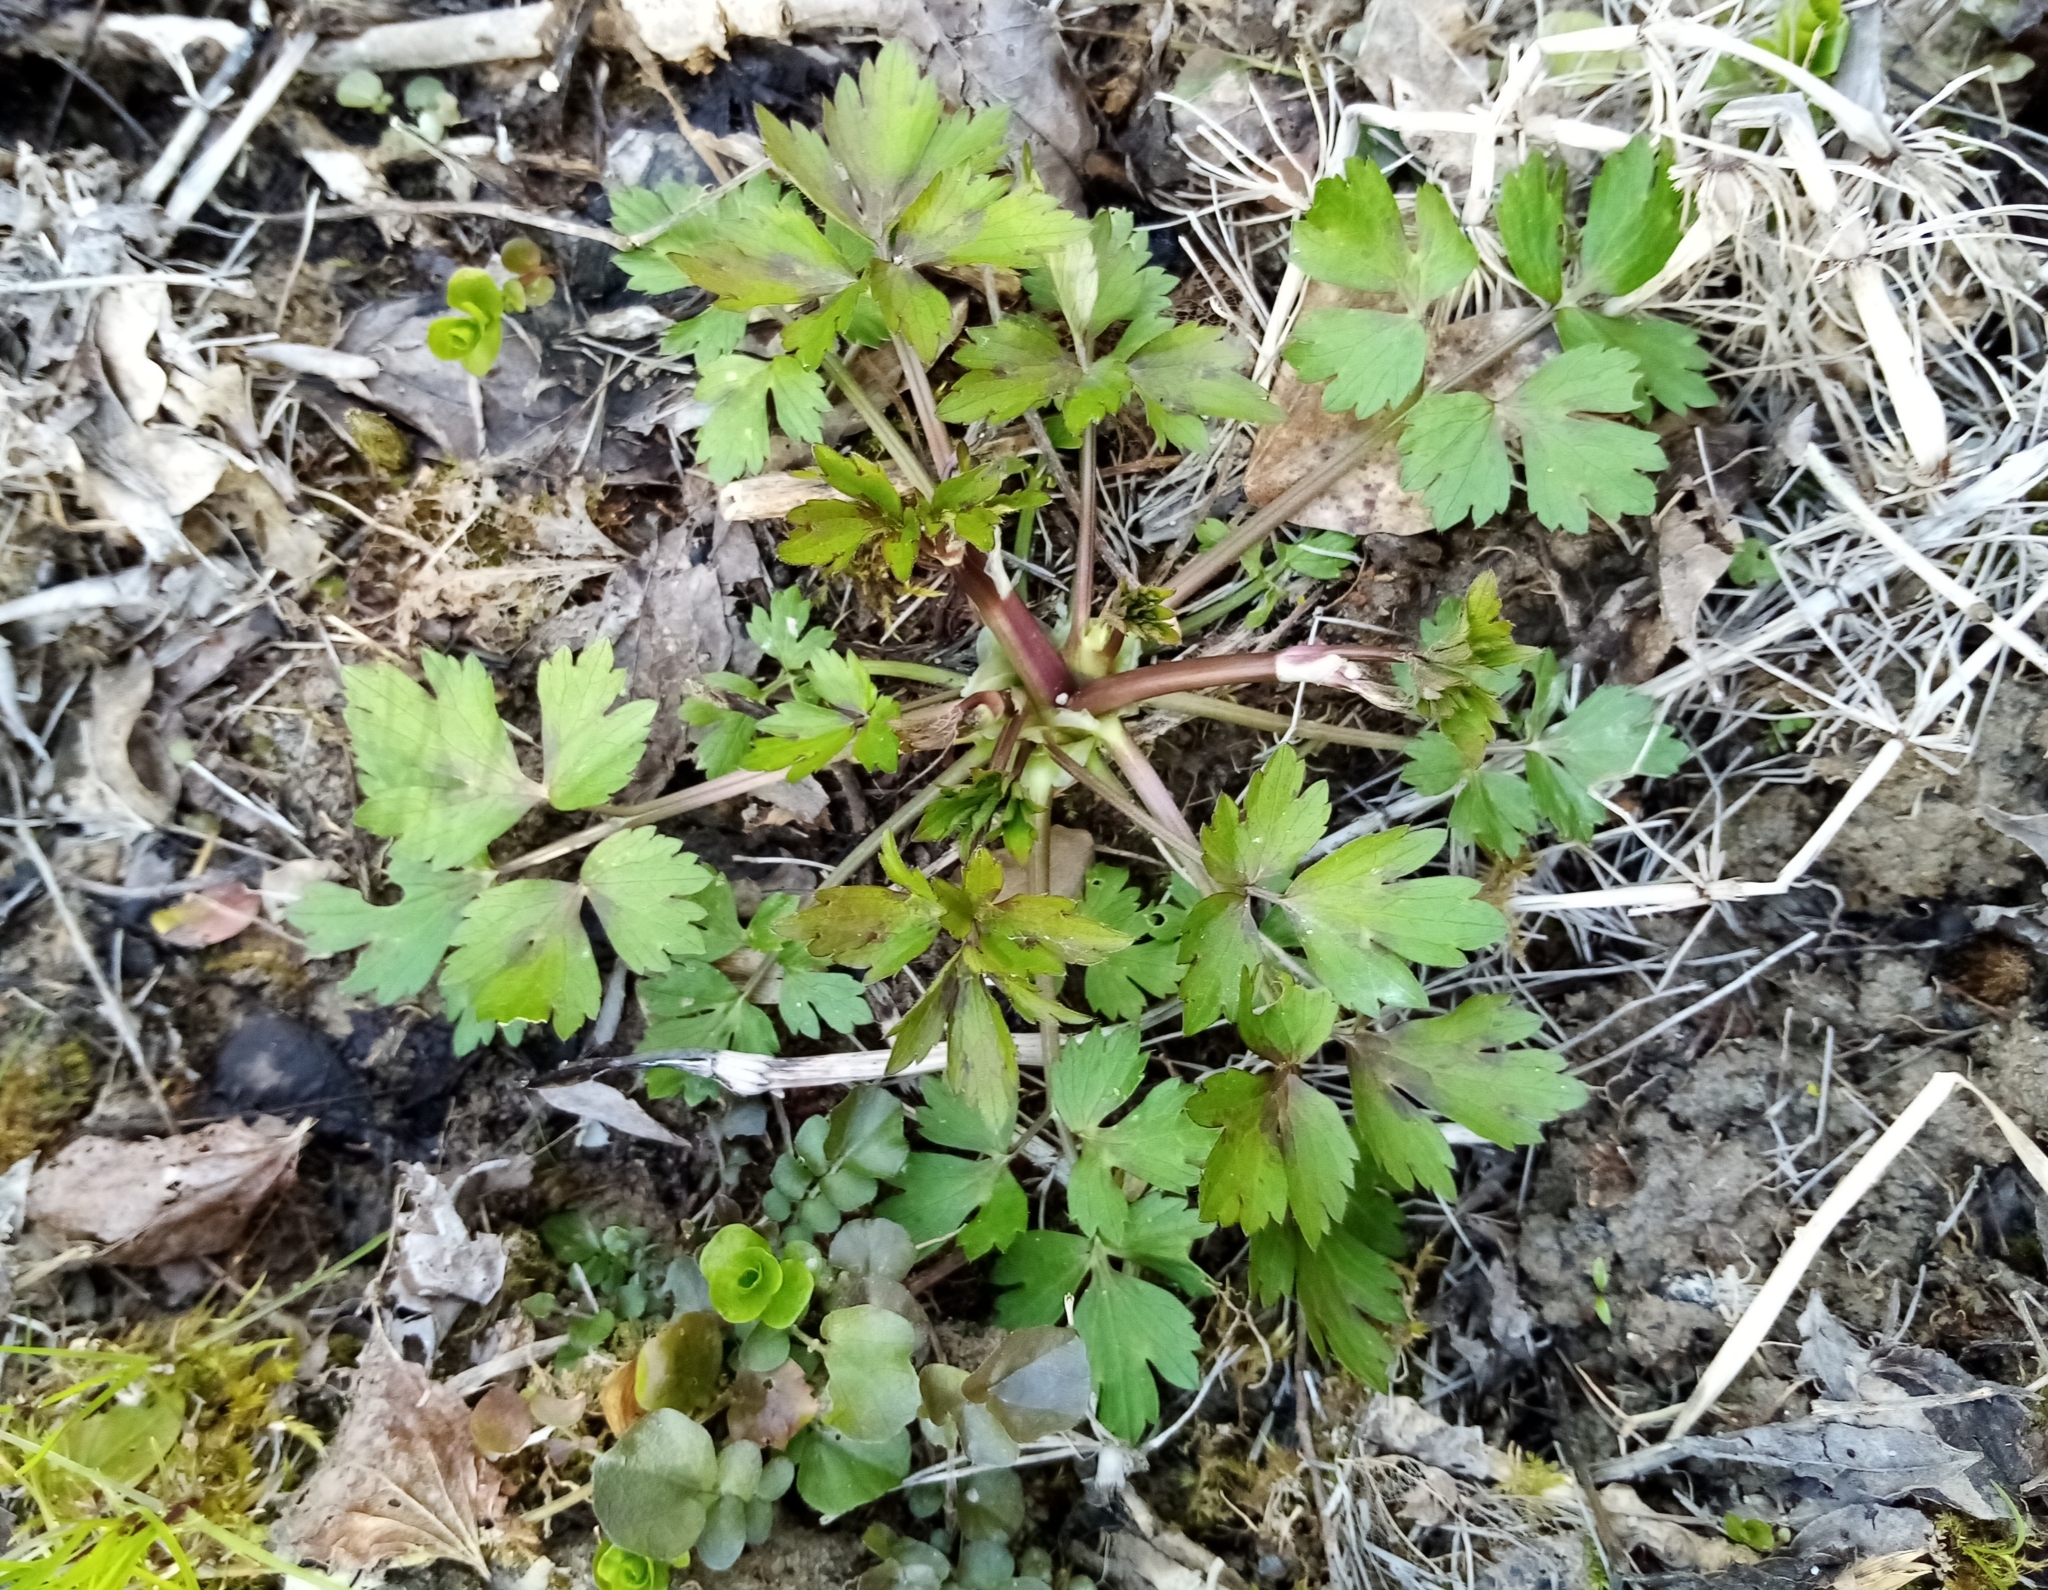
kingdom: Plantae
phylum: Tracheophyta
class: Magnoliopsida
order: Ranunculales
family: Ranunculaceae
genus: Ranunculus
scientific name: Ranunculus repens
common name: Creeping buttercup
